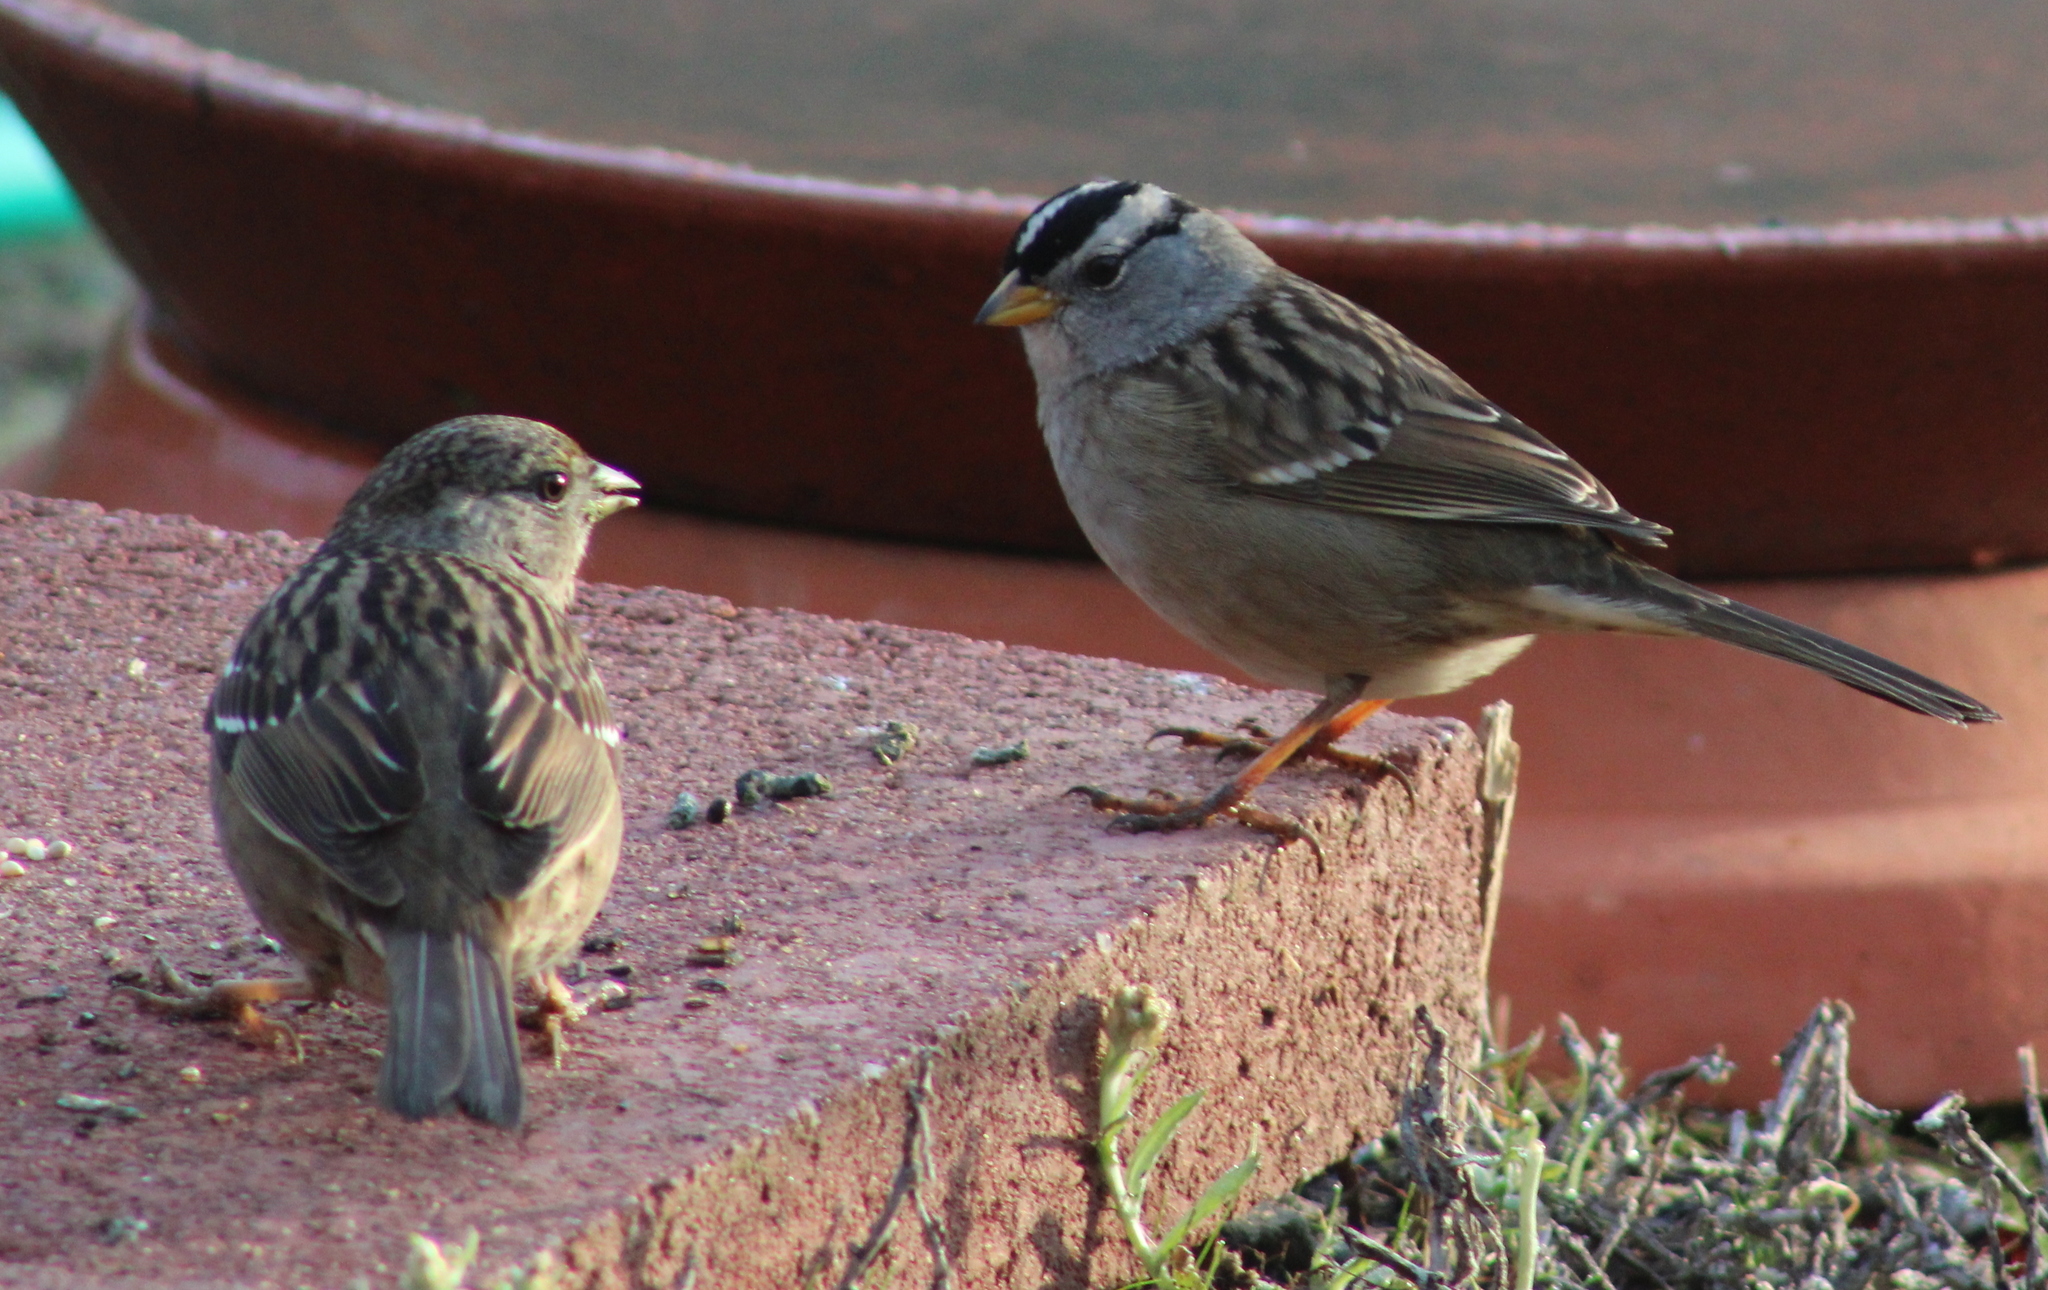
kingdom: Animalia
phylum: Chordata
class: Aves
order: Passeriformes
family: Passerellidae
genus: Zonotrichia
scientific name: Zonotrichia leucophrys
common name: White-crowned sparrow
